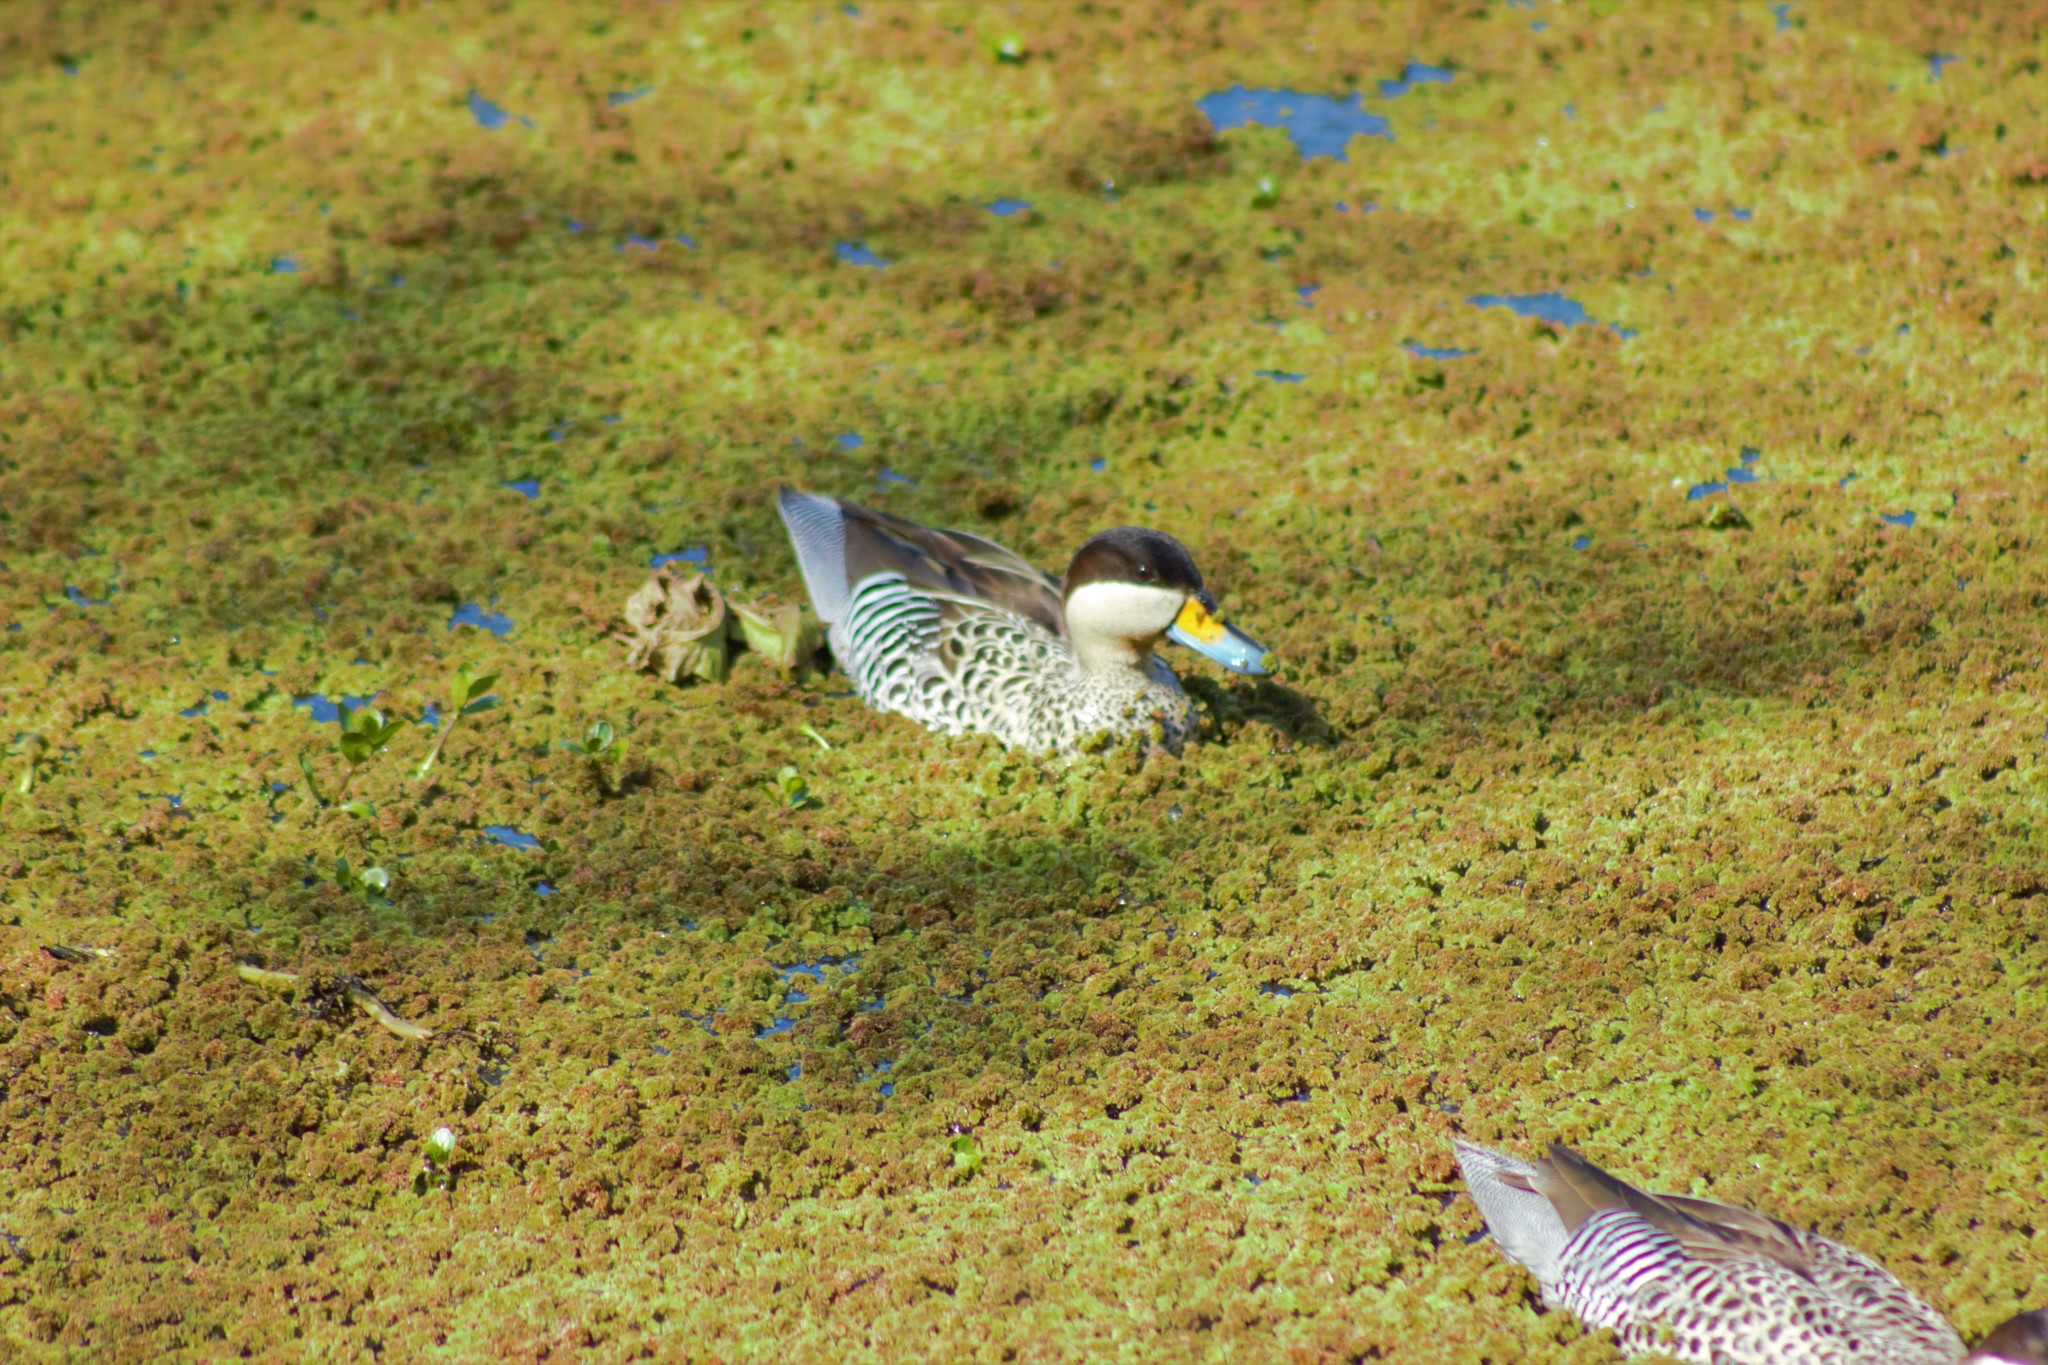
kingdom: Animalia
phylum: Chordata
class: Aves
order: Anseriformes
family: Anatidae
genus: Spatula
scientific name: Spatula versicolor
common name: Silver teal
